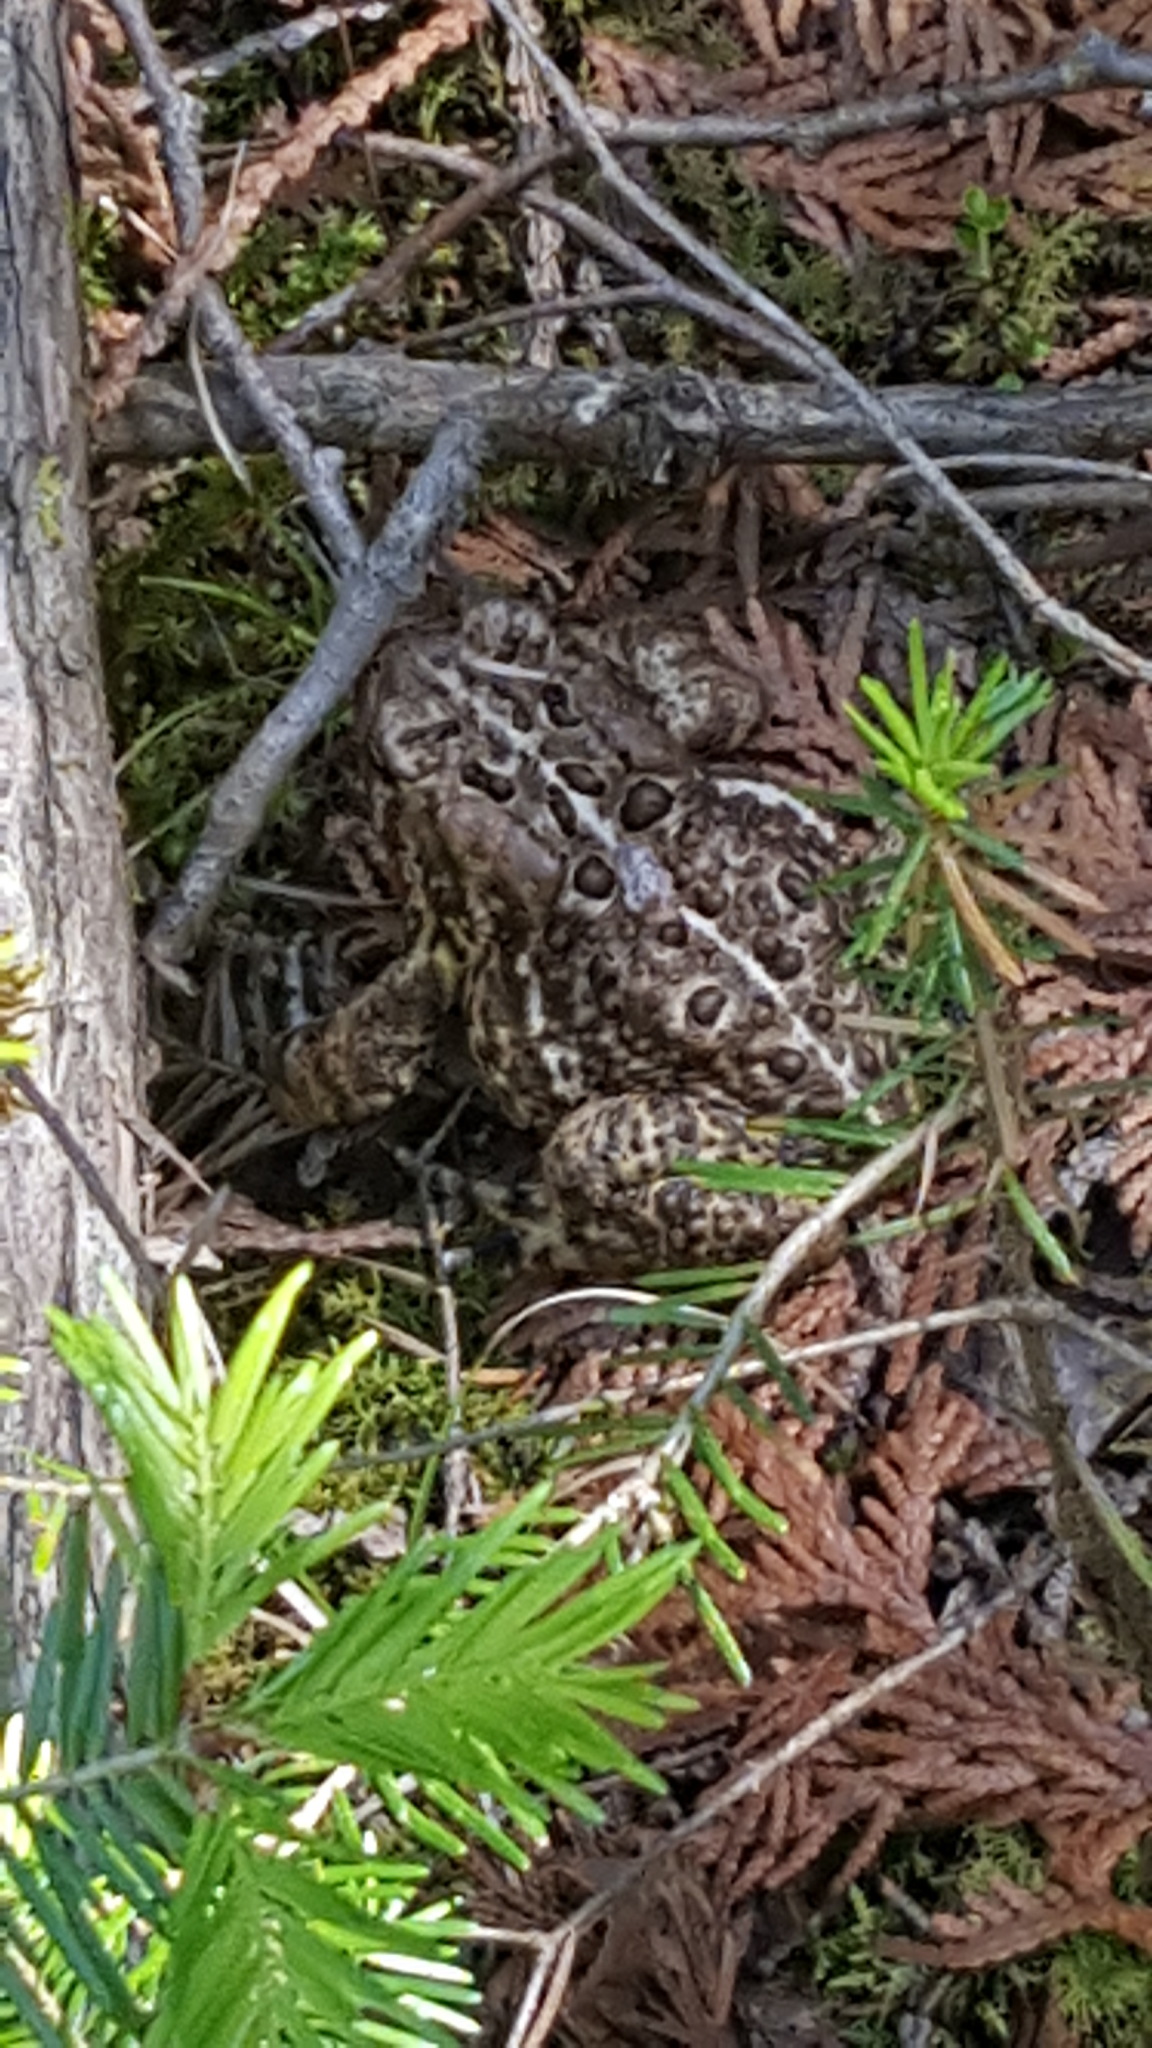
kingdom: Animalia
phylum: Chordata
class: Amphibia
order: Anura
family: Bufonidae
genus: Anaxyrus
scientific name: Anaxyrus americanus
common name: American toad
